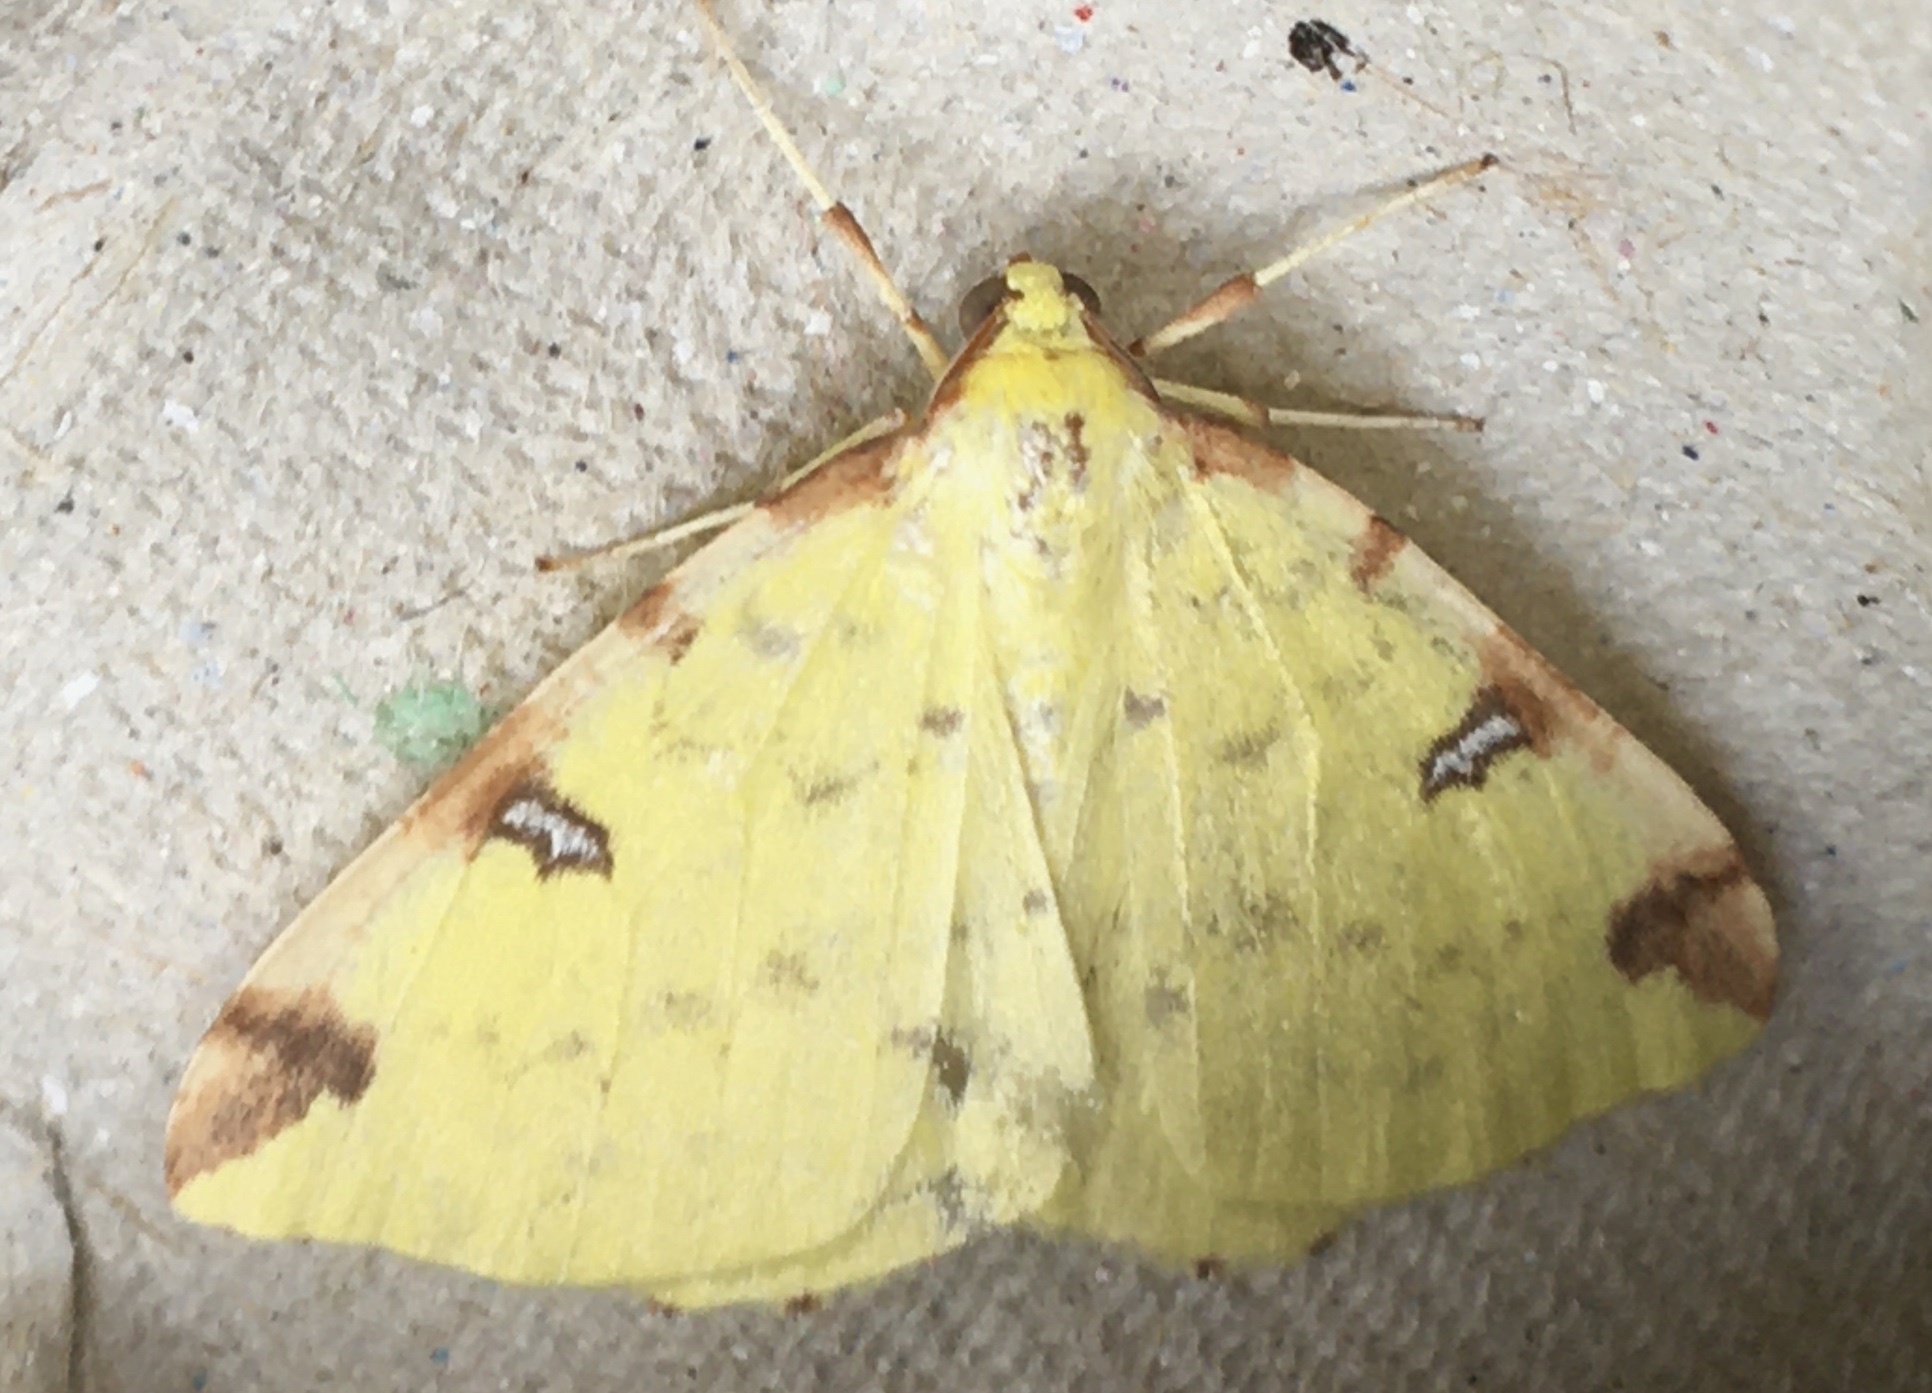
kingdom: Animalia
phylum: Arthropoda
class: Insecta
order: Lepidoptera
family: Geometridae
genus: Opisthograptis
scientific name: Opisthograptis luteolata
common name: Brimstone moth
